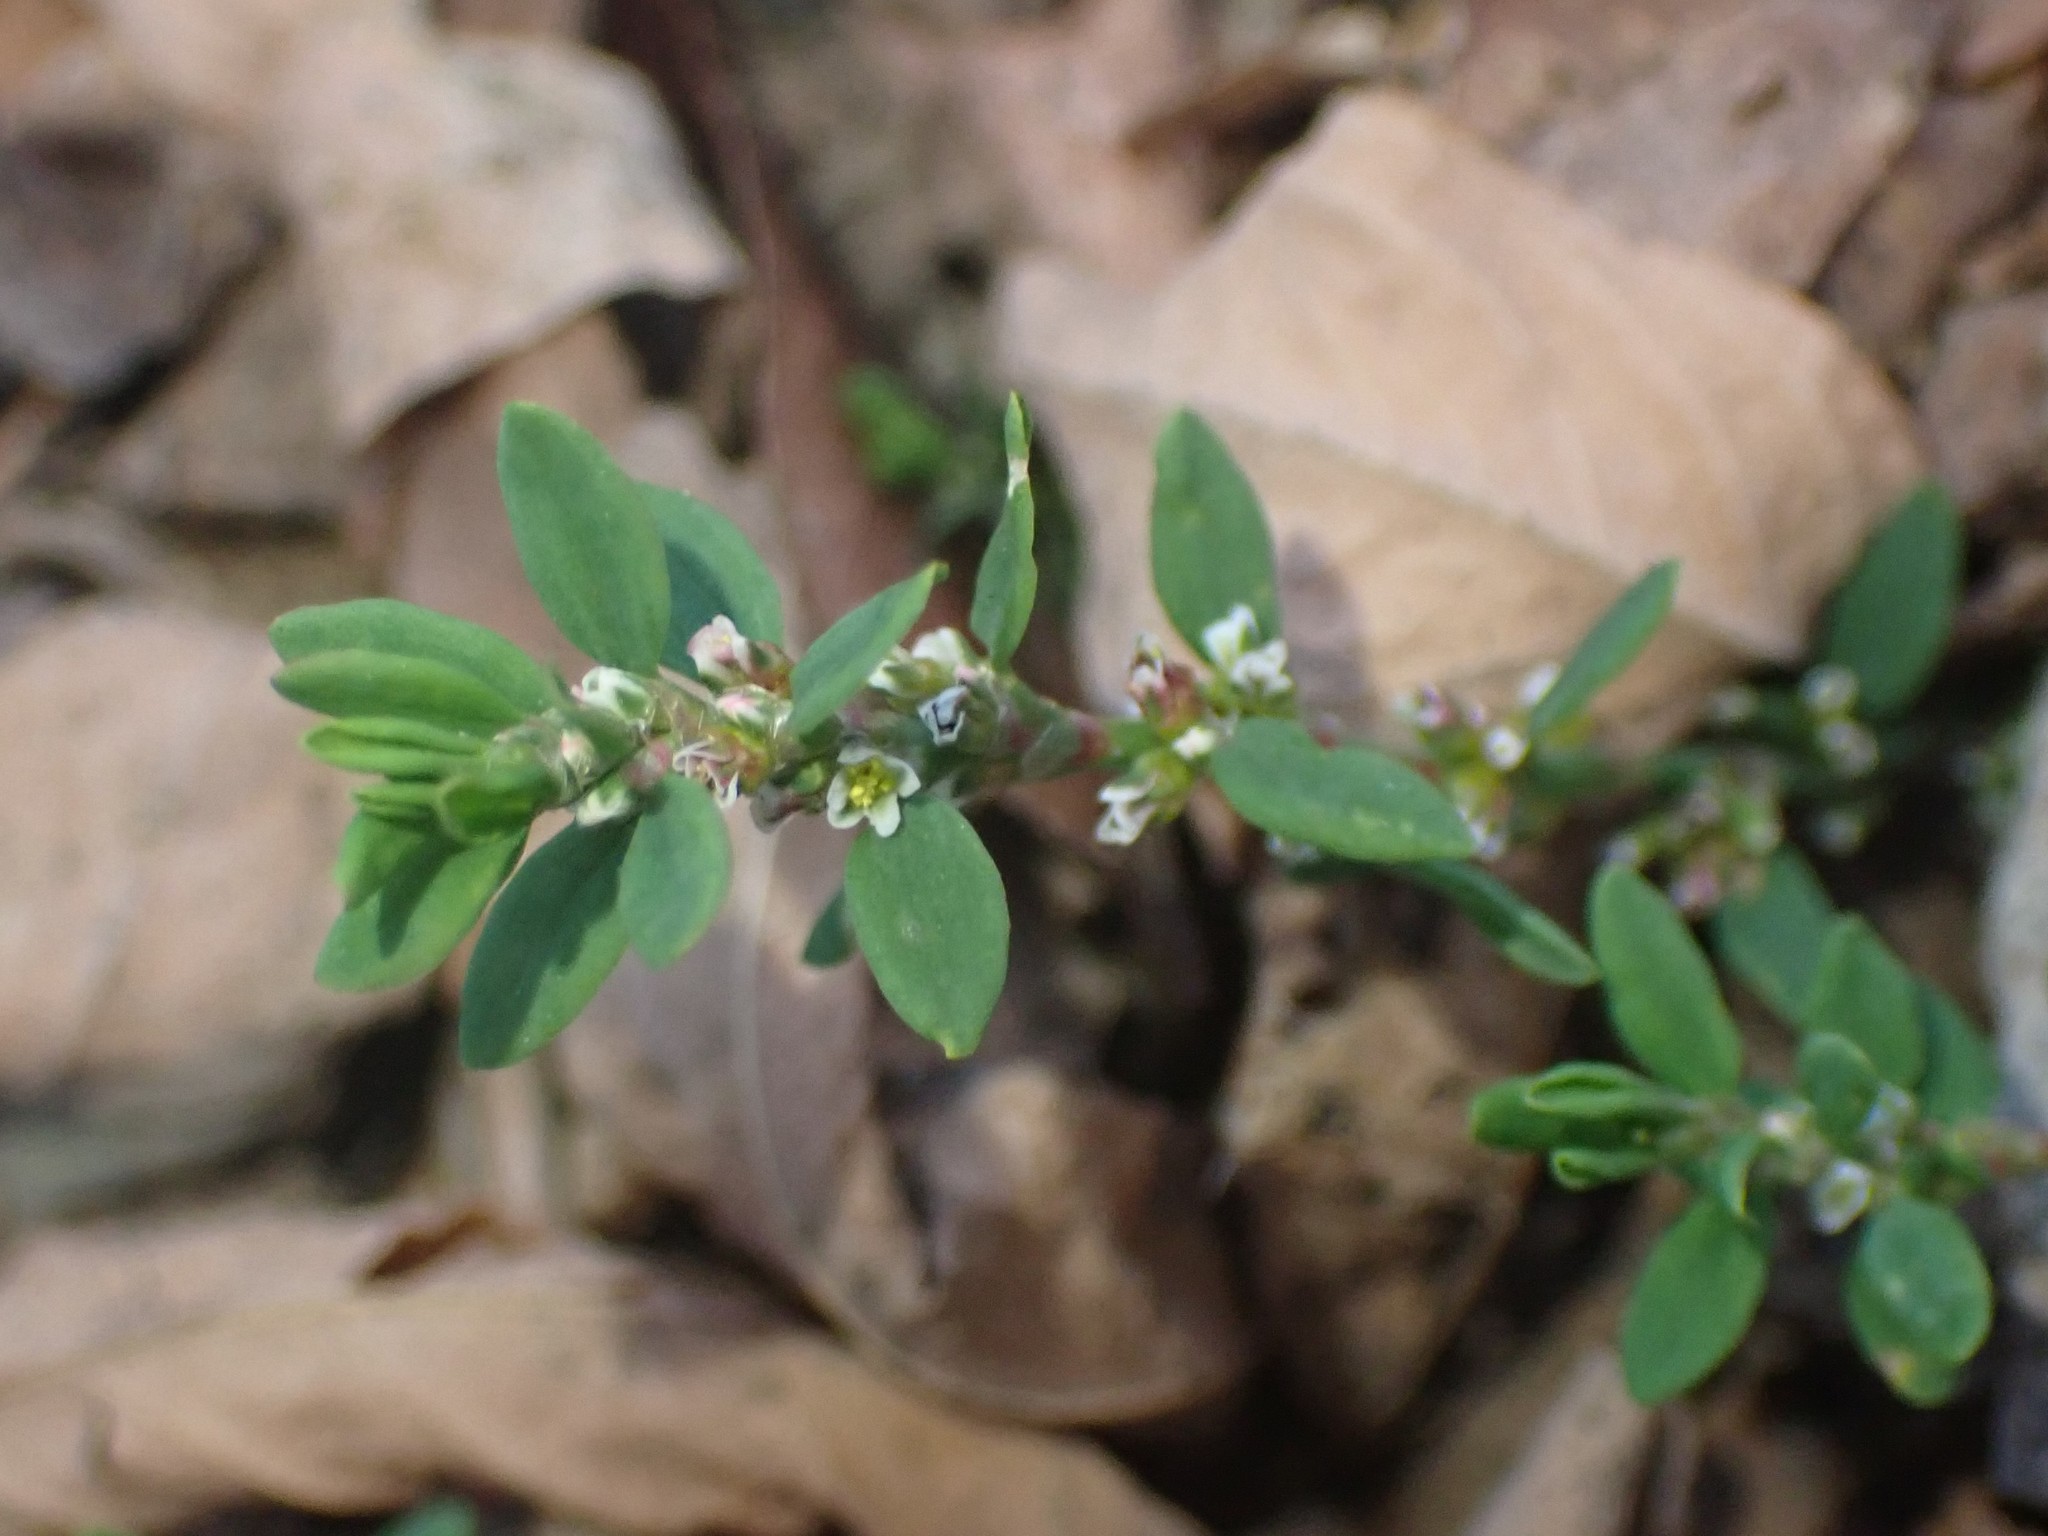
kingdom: Plantae
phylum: Tracheophyta
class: Magnoliopsida
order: Caryophyllales
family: Polygonaceae
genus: Polygonum
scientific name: Polygonum aviculare
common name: Prostrate knotweed
